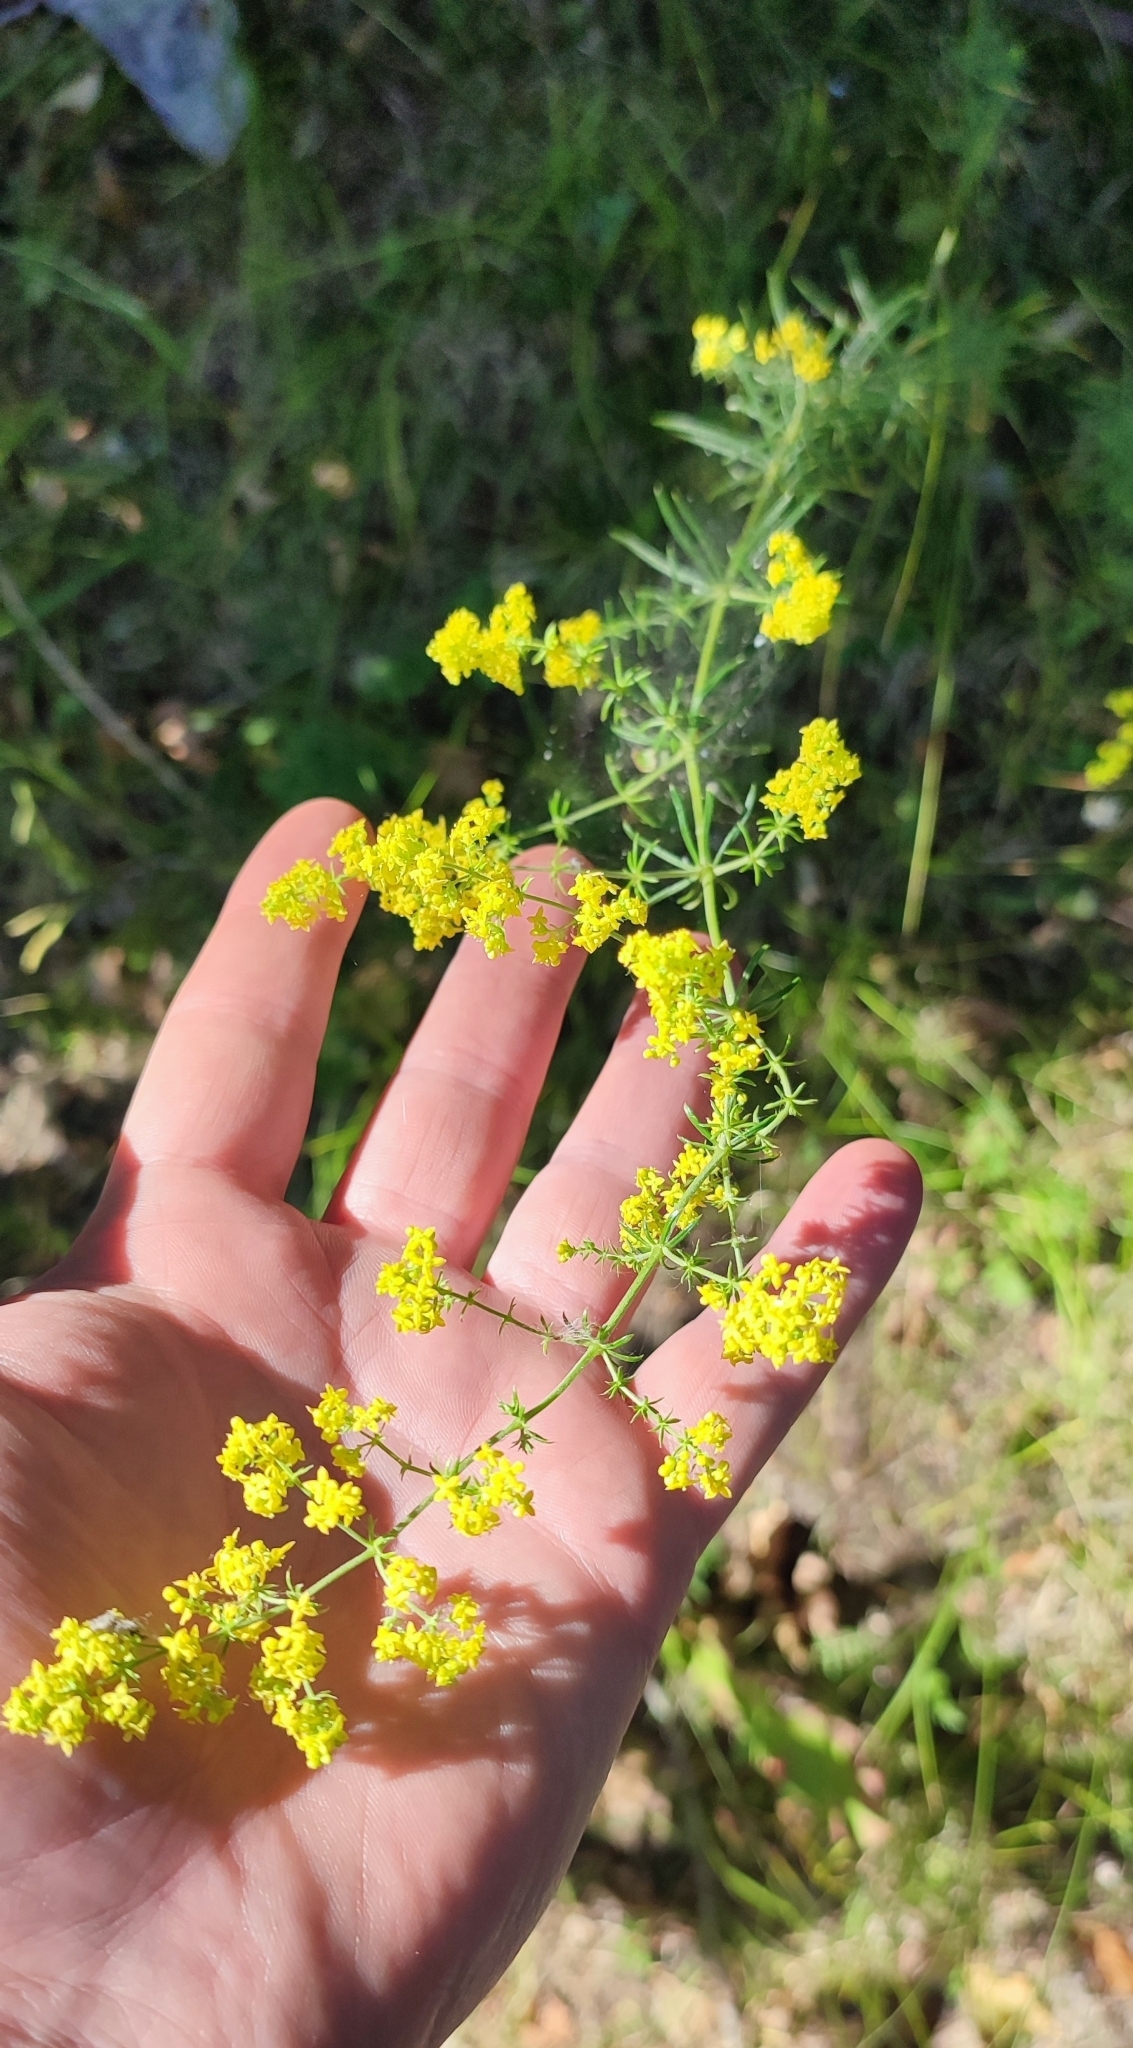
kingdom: Plantae
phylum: Tracheophyta
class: Magnoliopsida
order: Gentianales
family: Rubiaceae
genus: Galium
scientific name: Galium verum
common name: Lady's bedstraw
